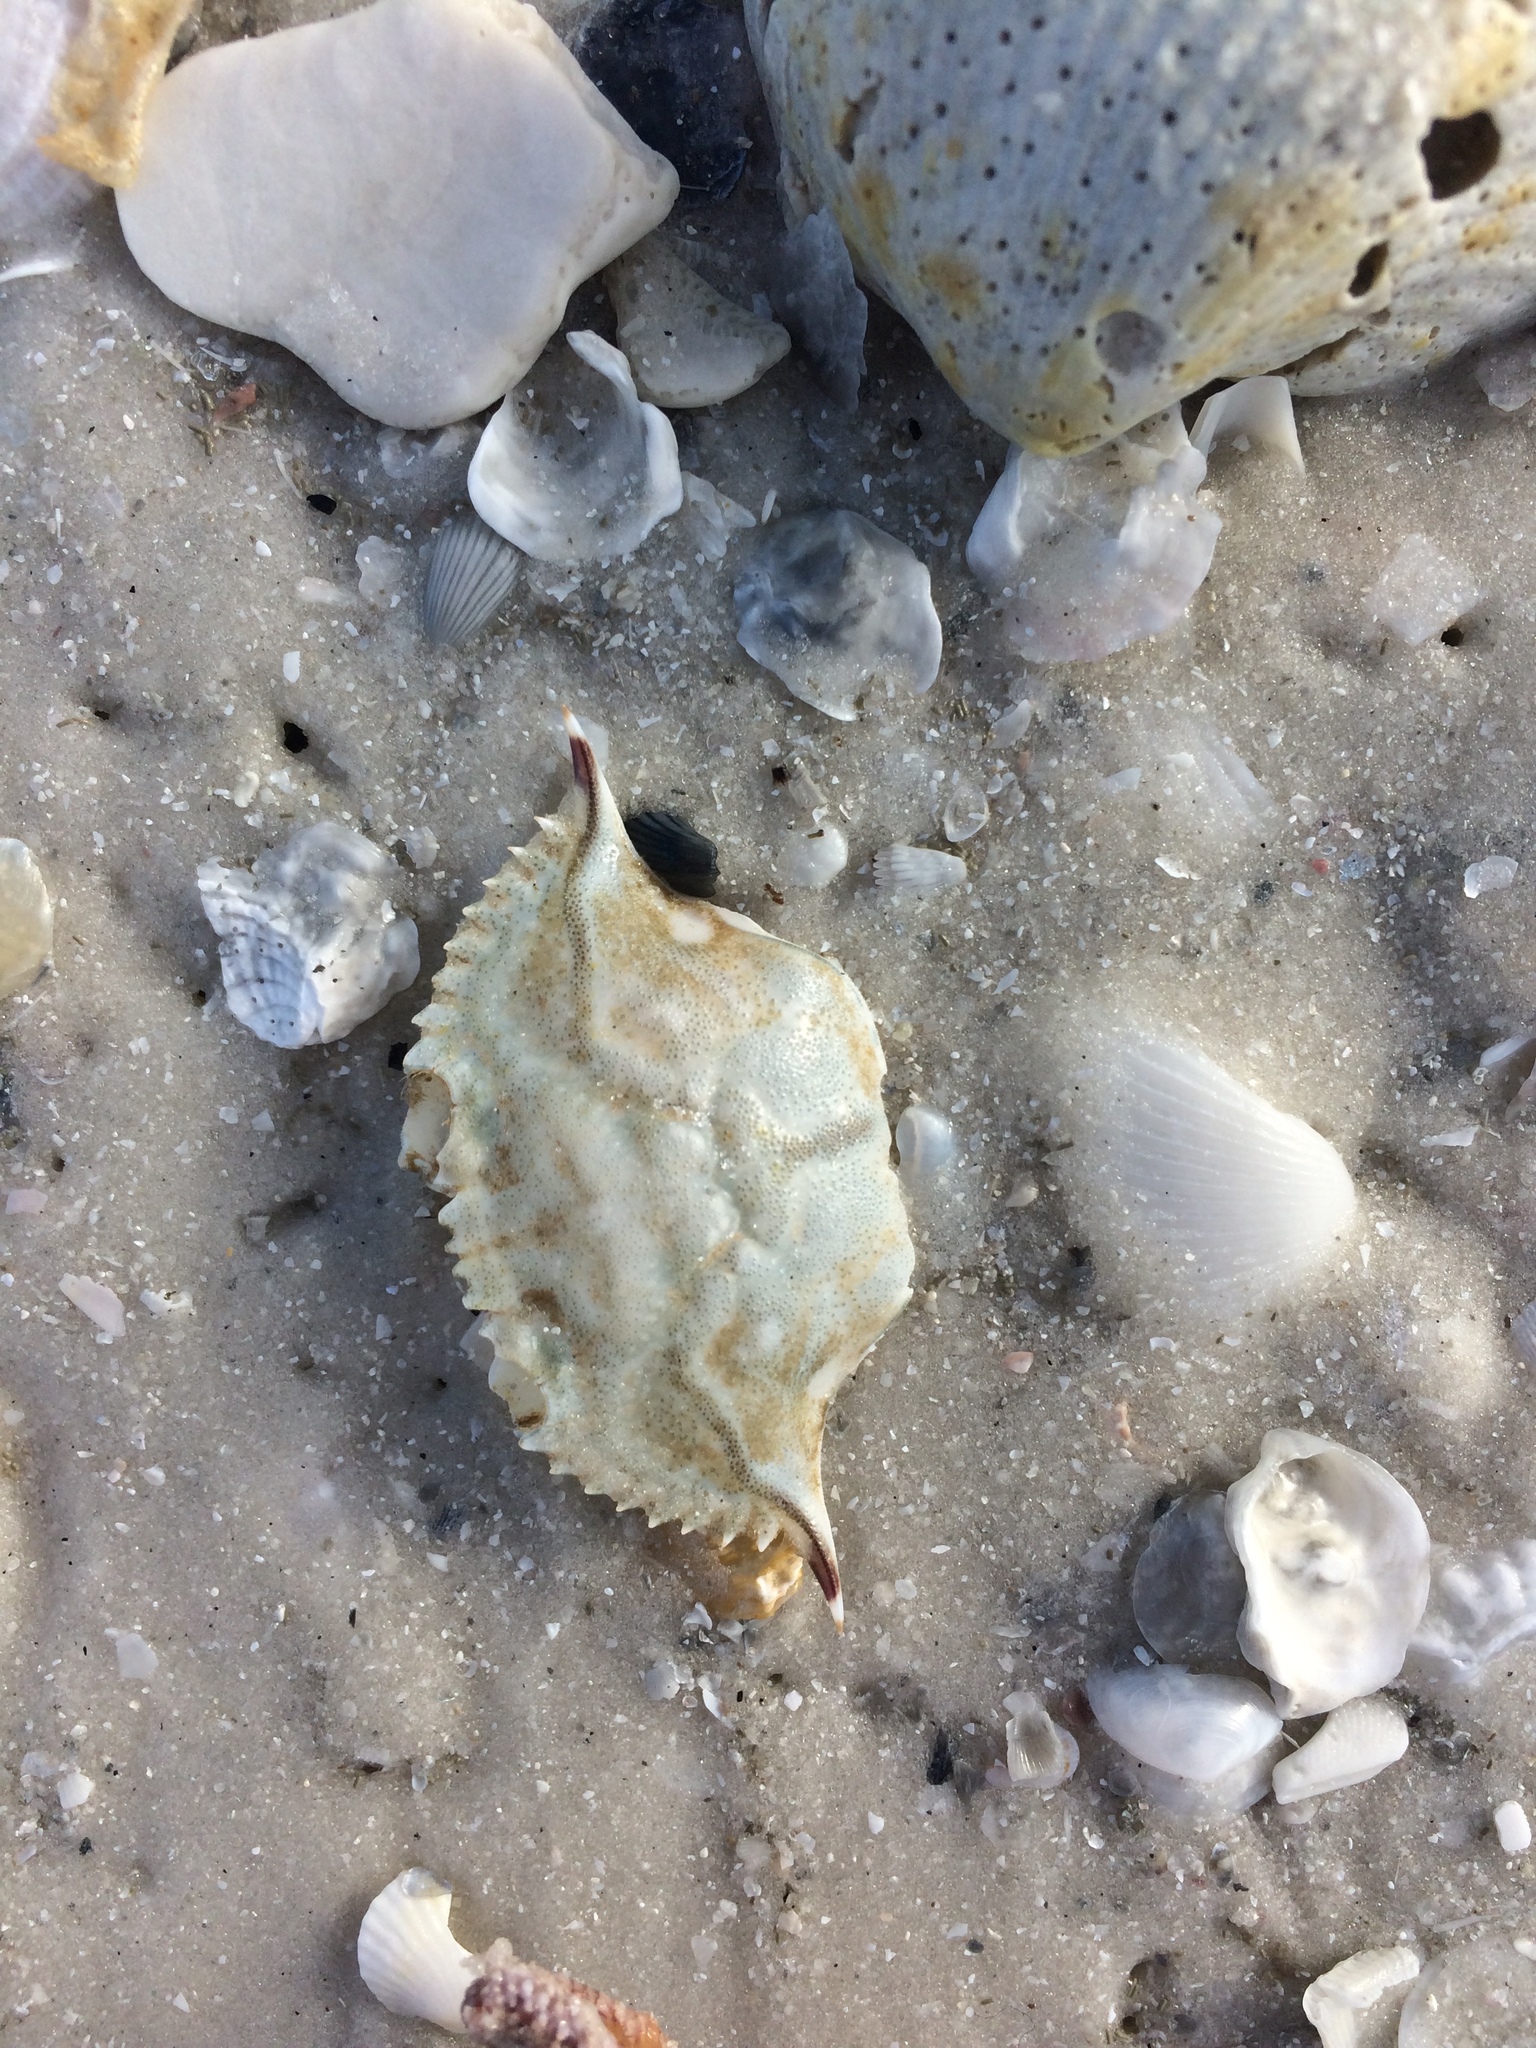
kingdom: Animalia
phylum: Arthropoda
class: Malacostraca
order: Decapoda
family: Portunidae
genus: Achelous
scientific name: Achelous gibbesii
